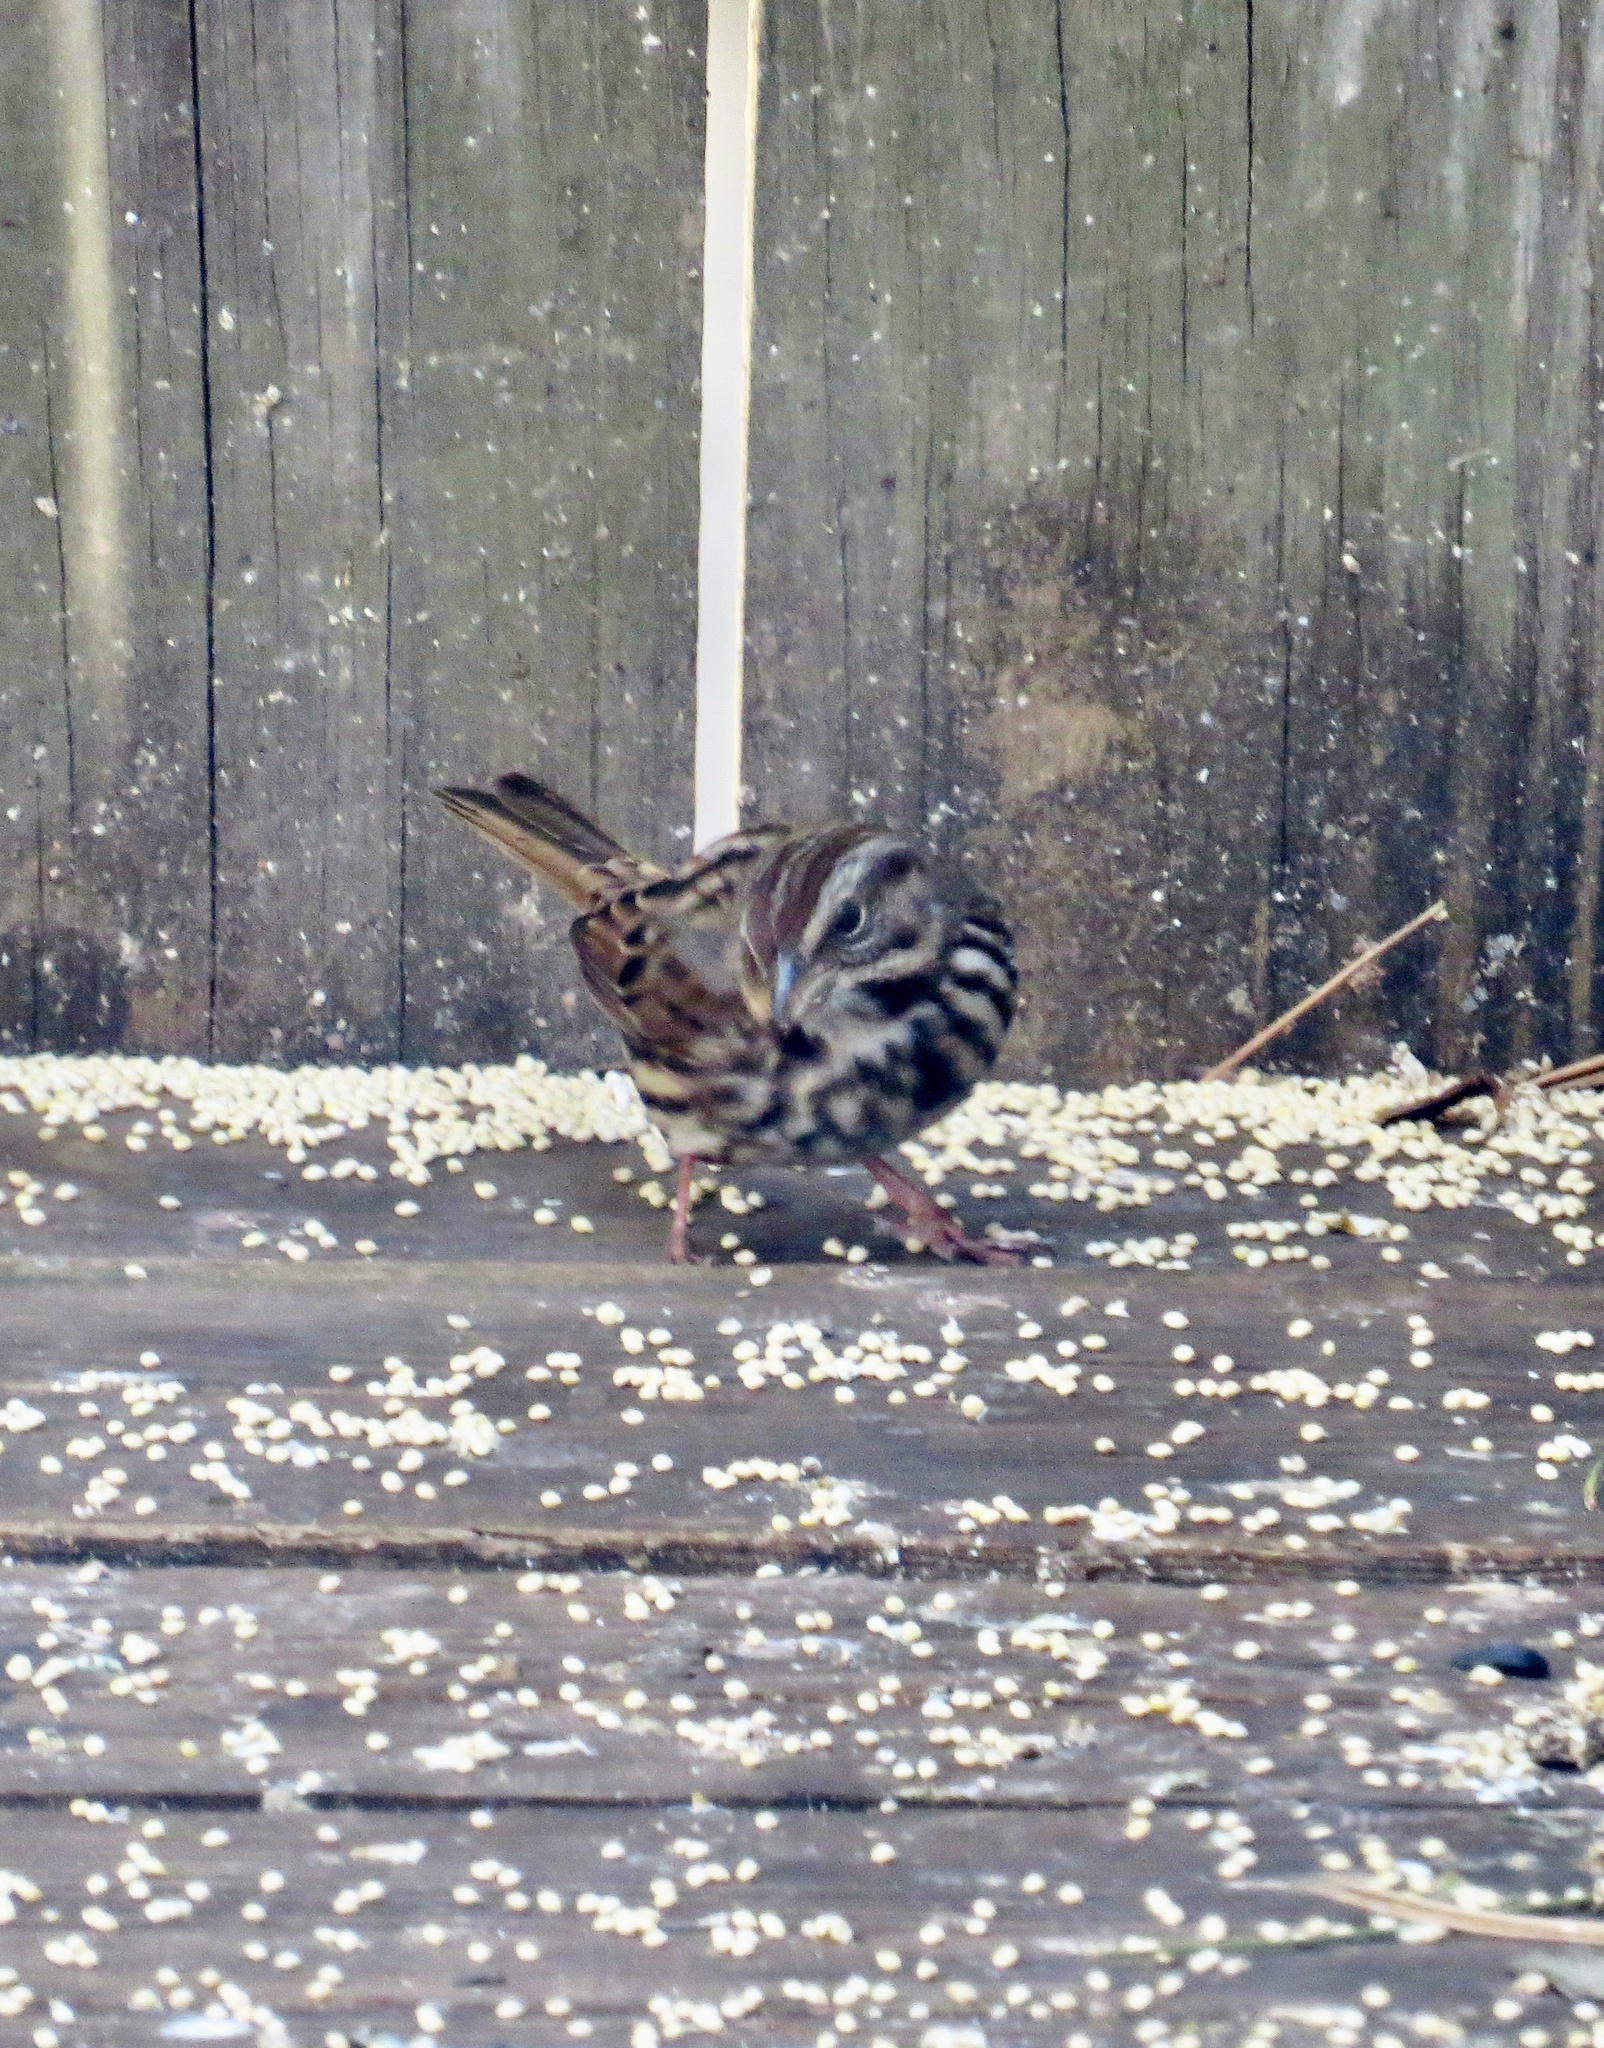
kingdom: Animalia
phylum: Chordata
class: Aves
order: Passeriformes
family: Passerellidae
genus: Melospiza
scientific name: Melospiza melodia
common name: Song sparrow
